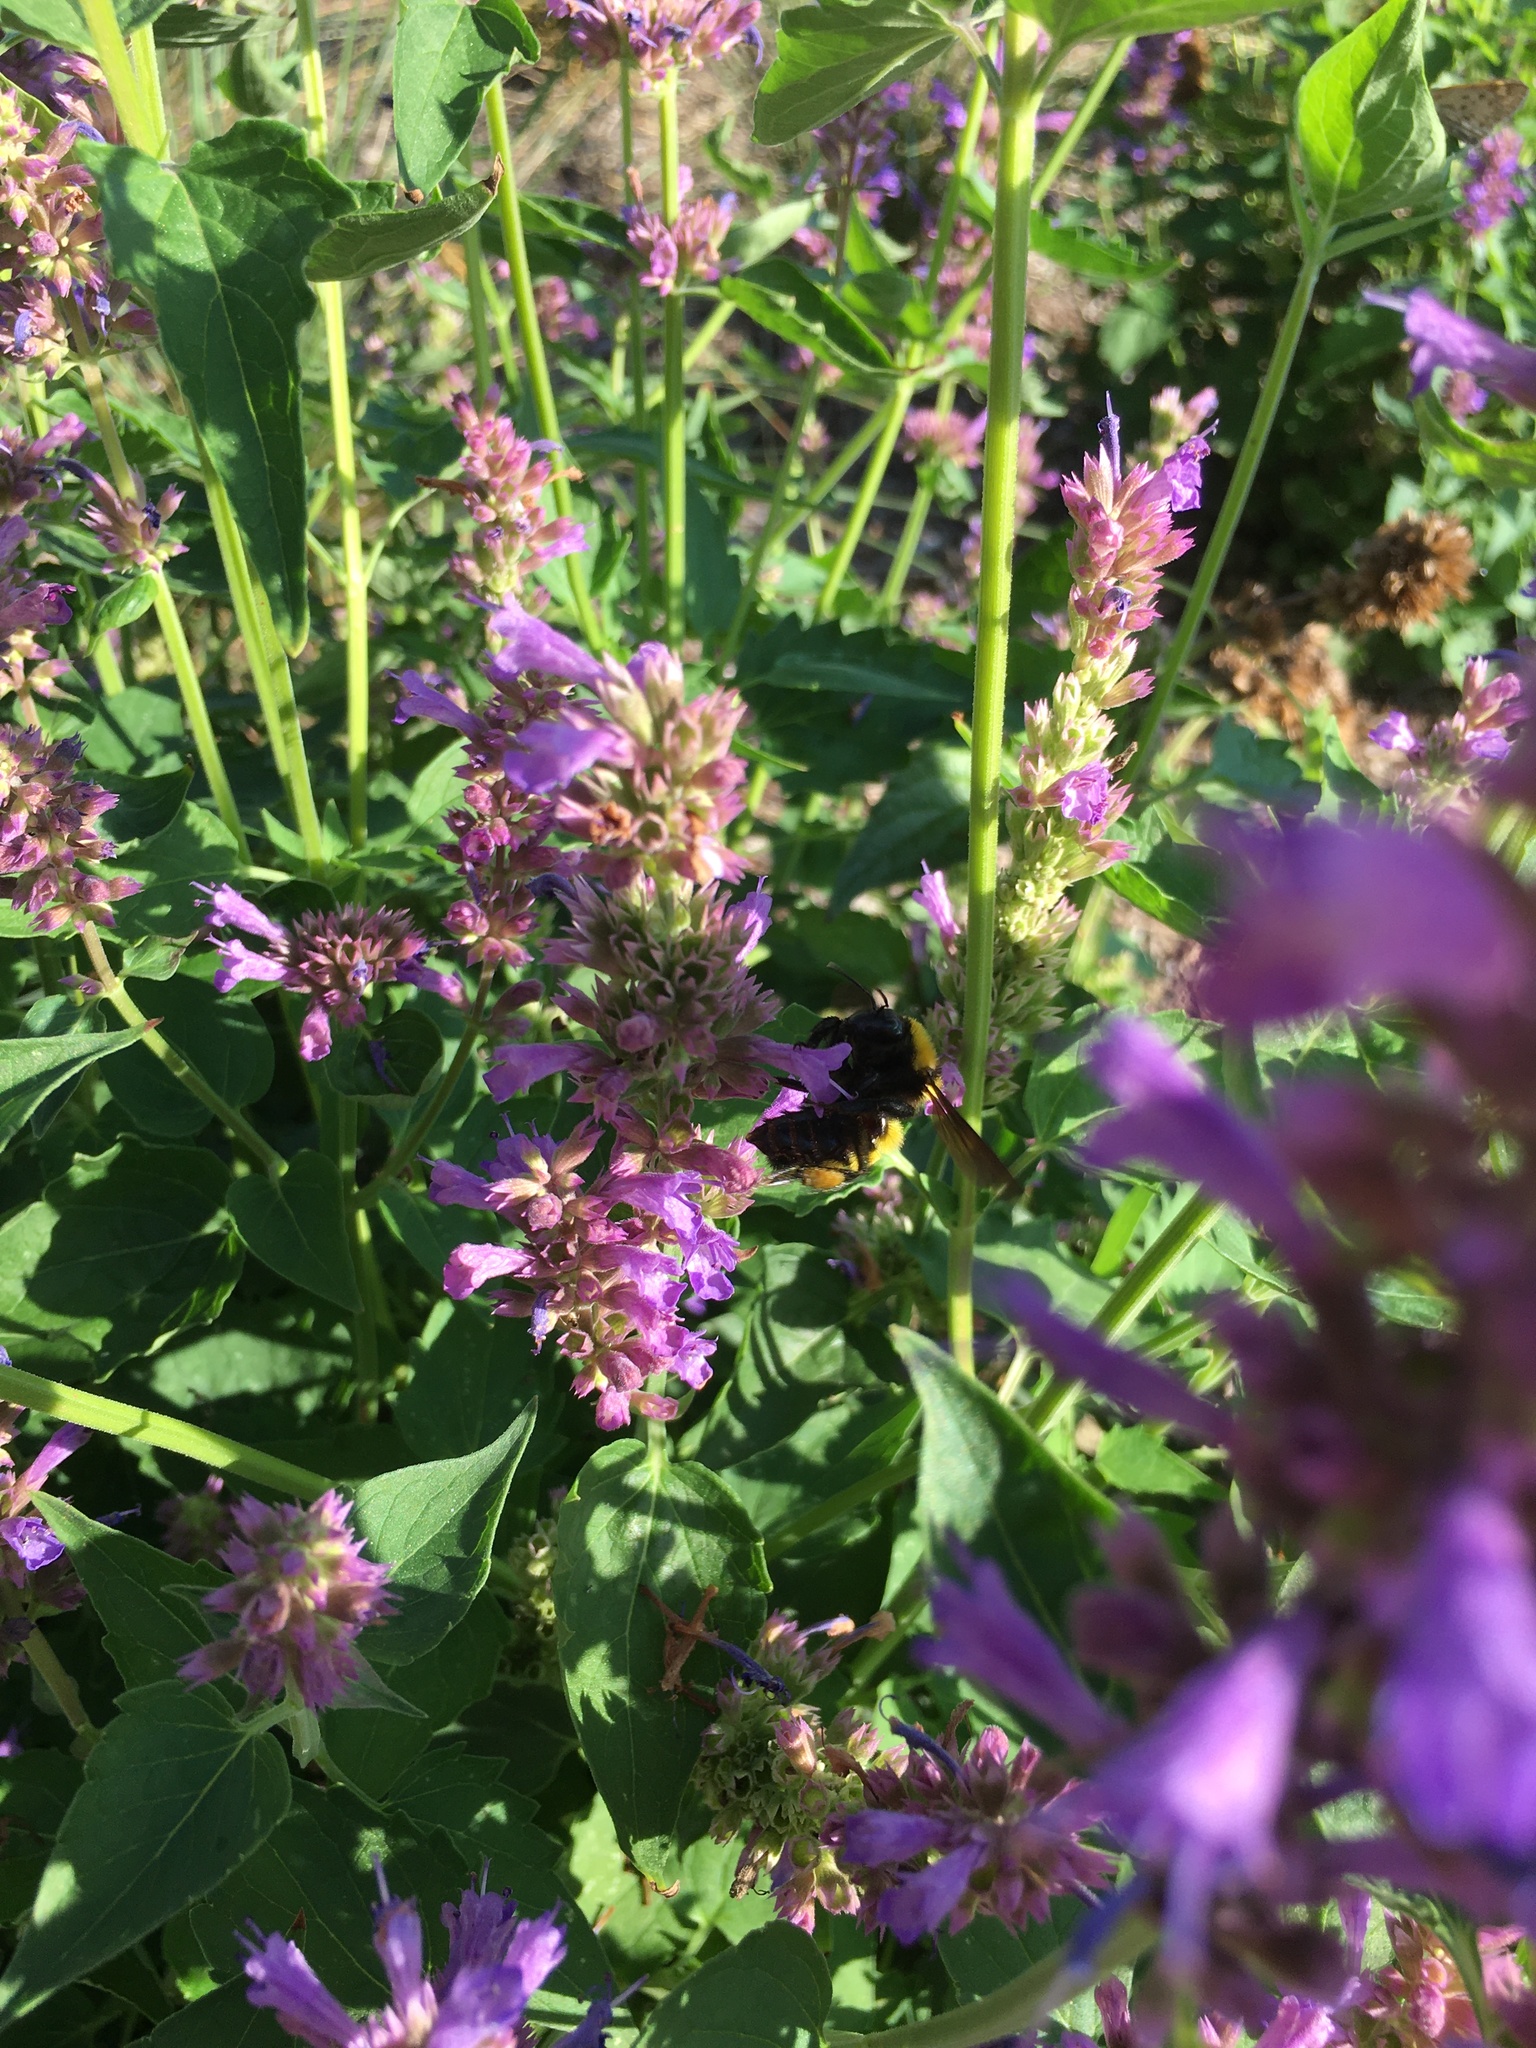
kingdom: Animalia
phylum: Arthropoda
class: Insecta
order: Hymenoptera
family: Apidae
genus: Bombus
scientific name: Bombus sonorus
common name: Sonoran bumble bee
